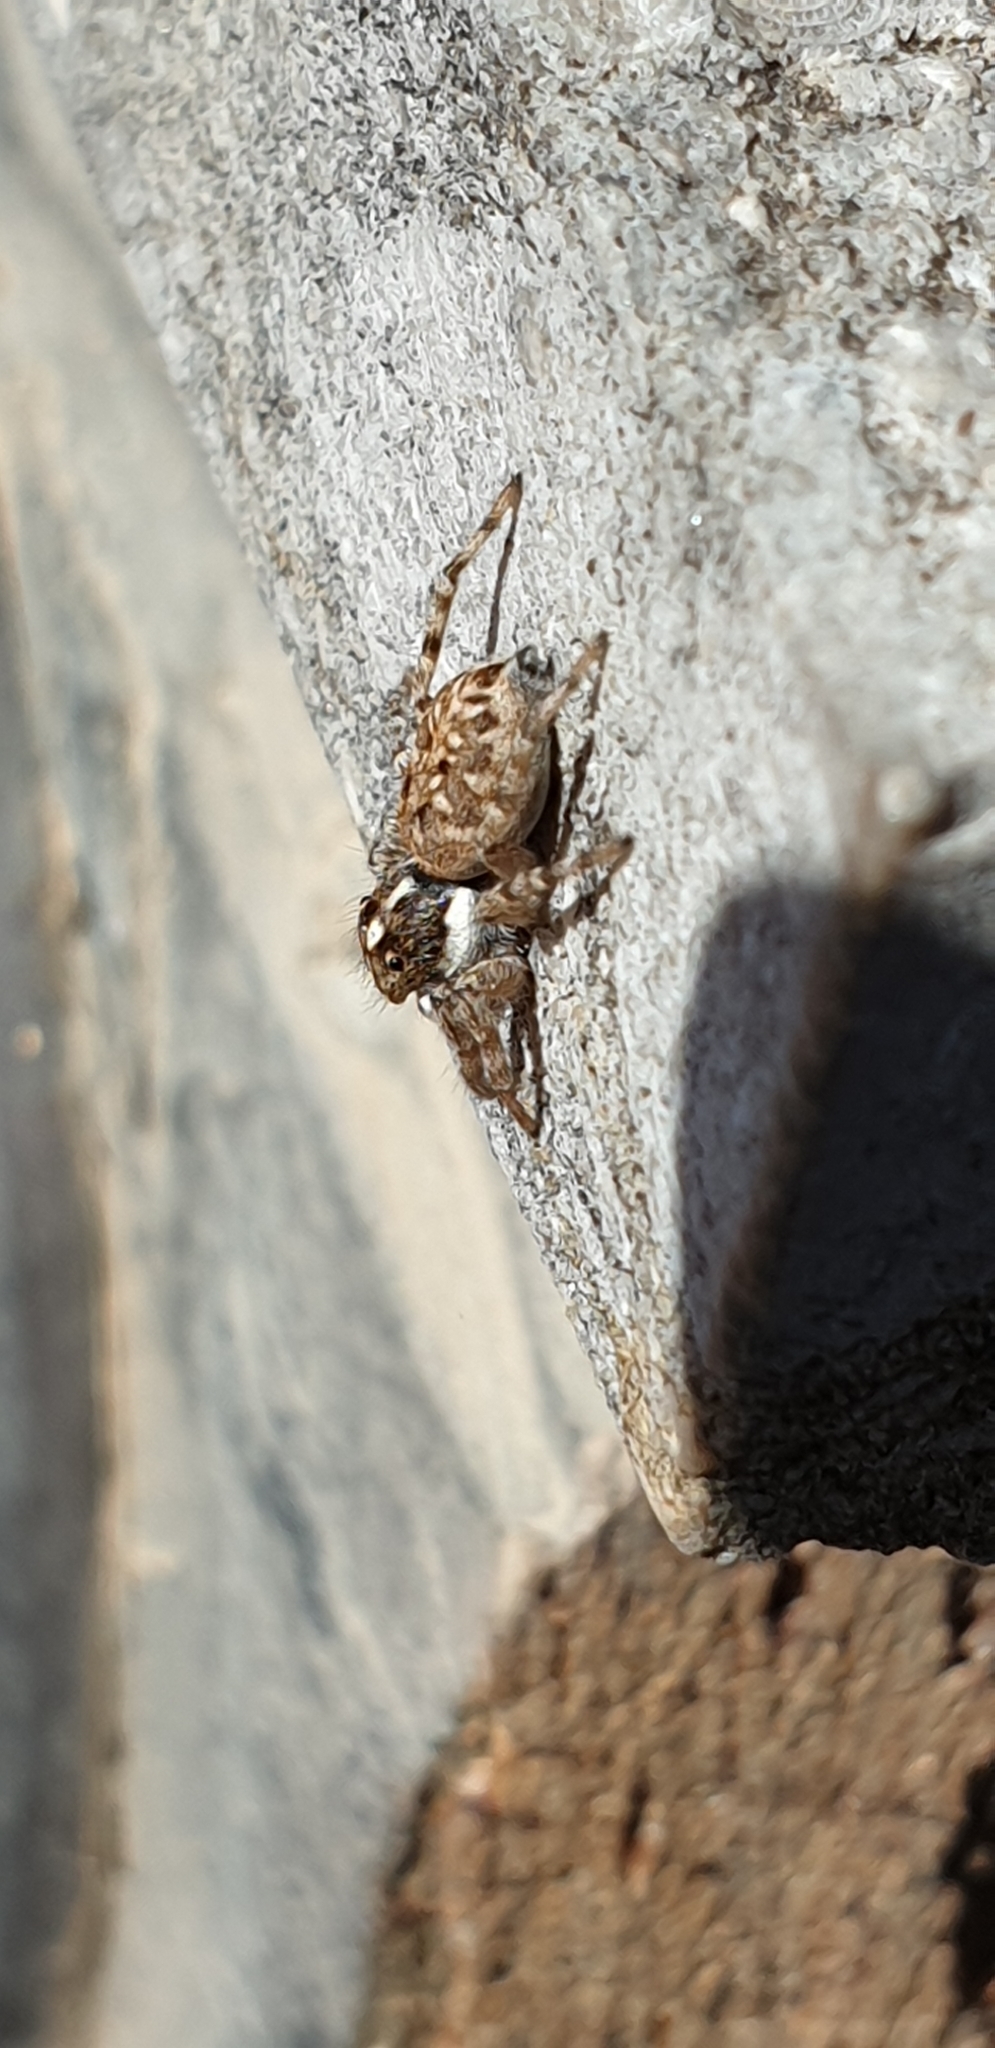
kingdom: Animalia
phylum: Arthropoda
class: Arachnida
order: Araneae
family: Salticidae
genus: Menemerus
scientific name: Menemerus semilimbatus
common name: Jumping spider
